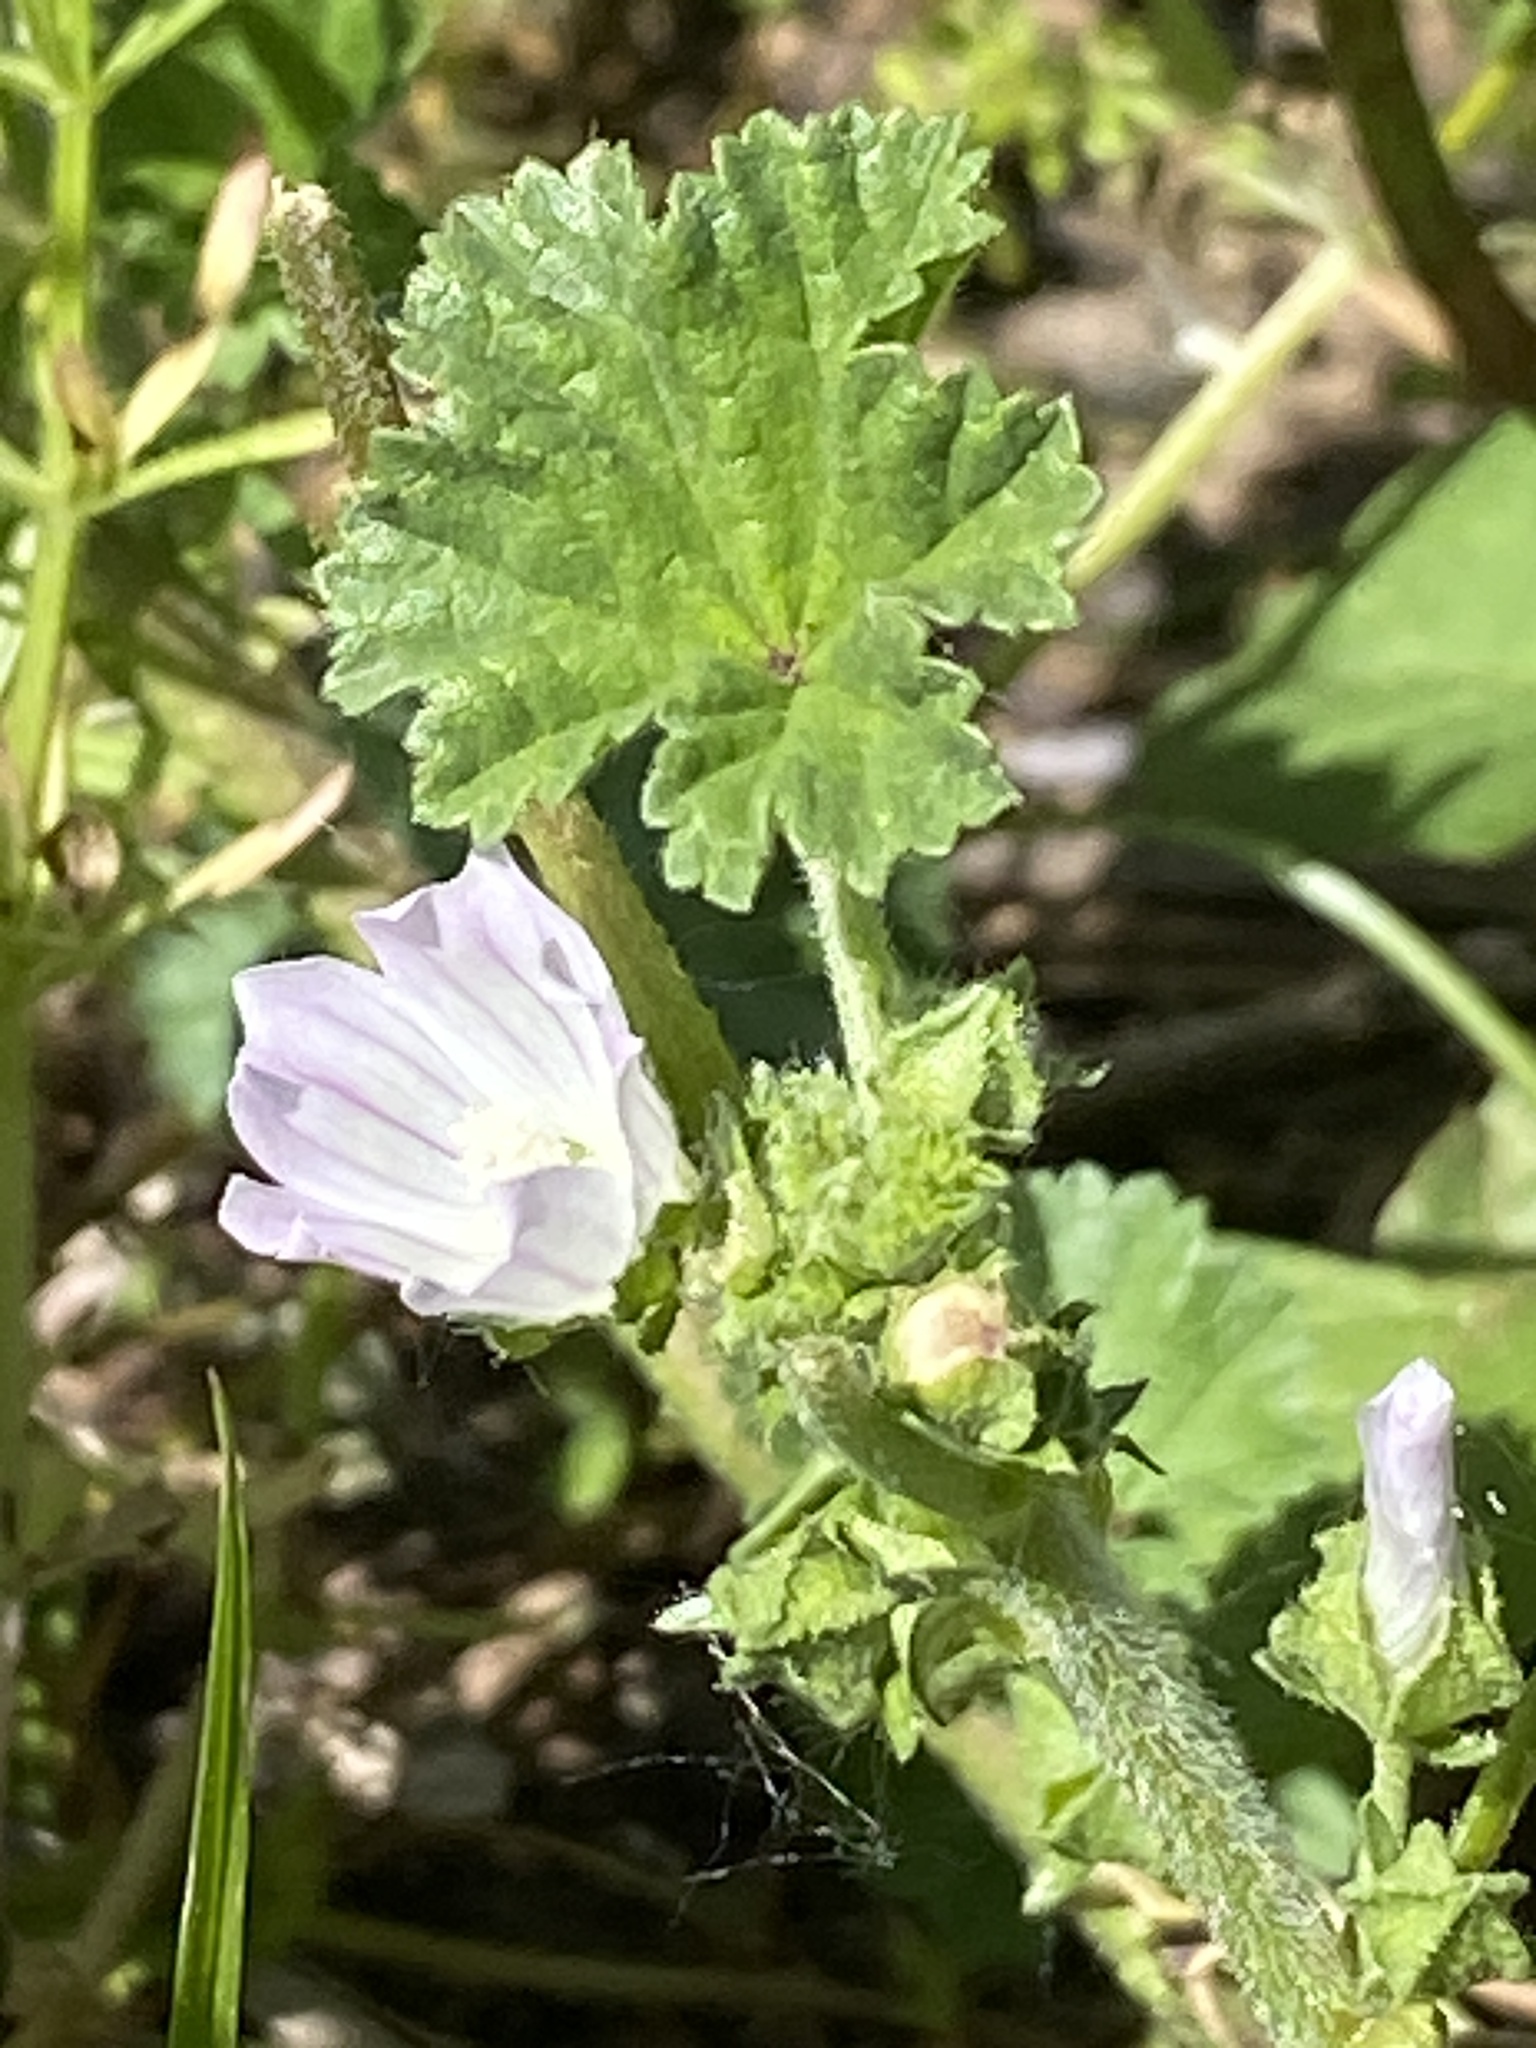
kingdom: Plantae
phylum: Tracheophyta
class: Magnoliopsida
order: Malvales
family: Malvaceae
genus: Malva
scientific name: Malva neglecta
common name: Common mallow
